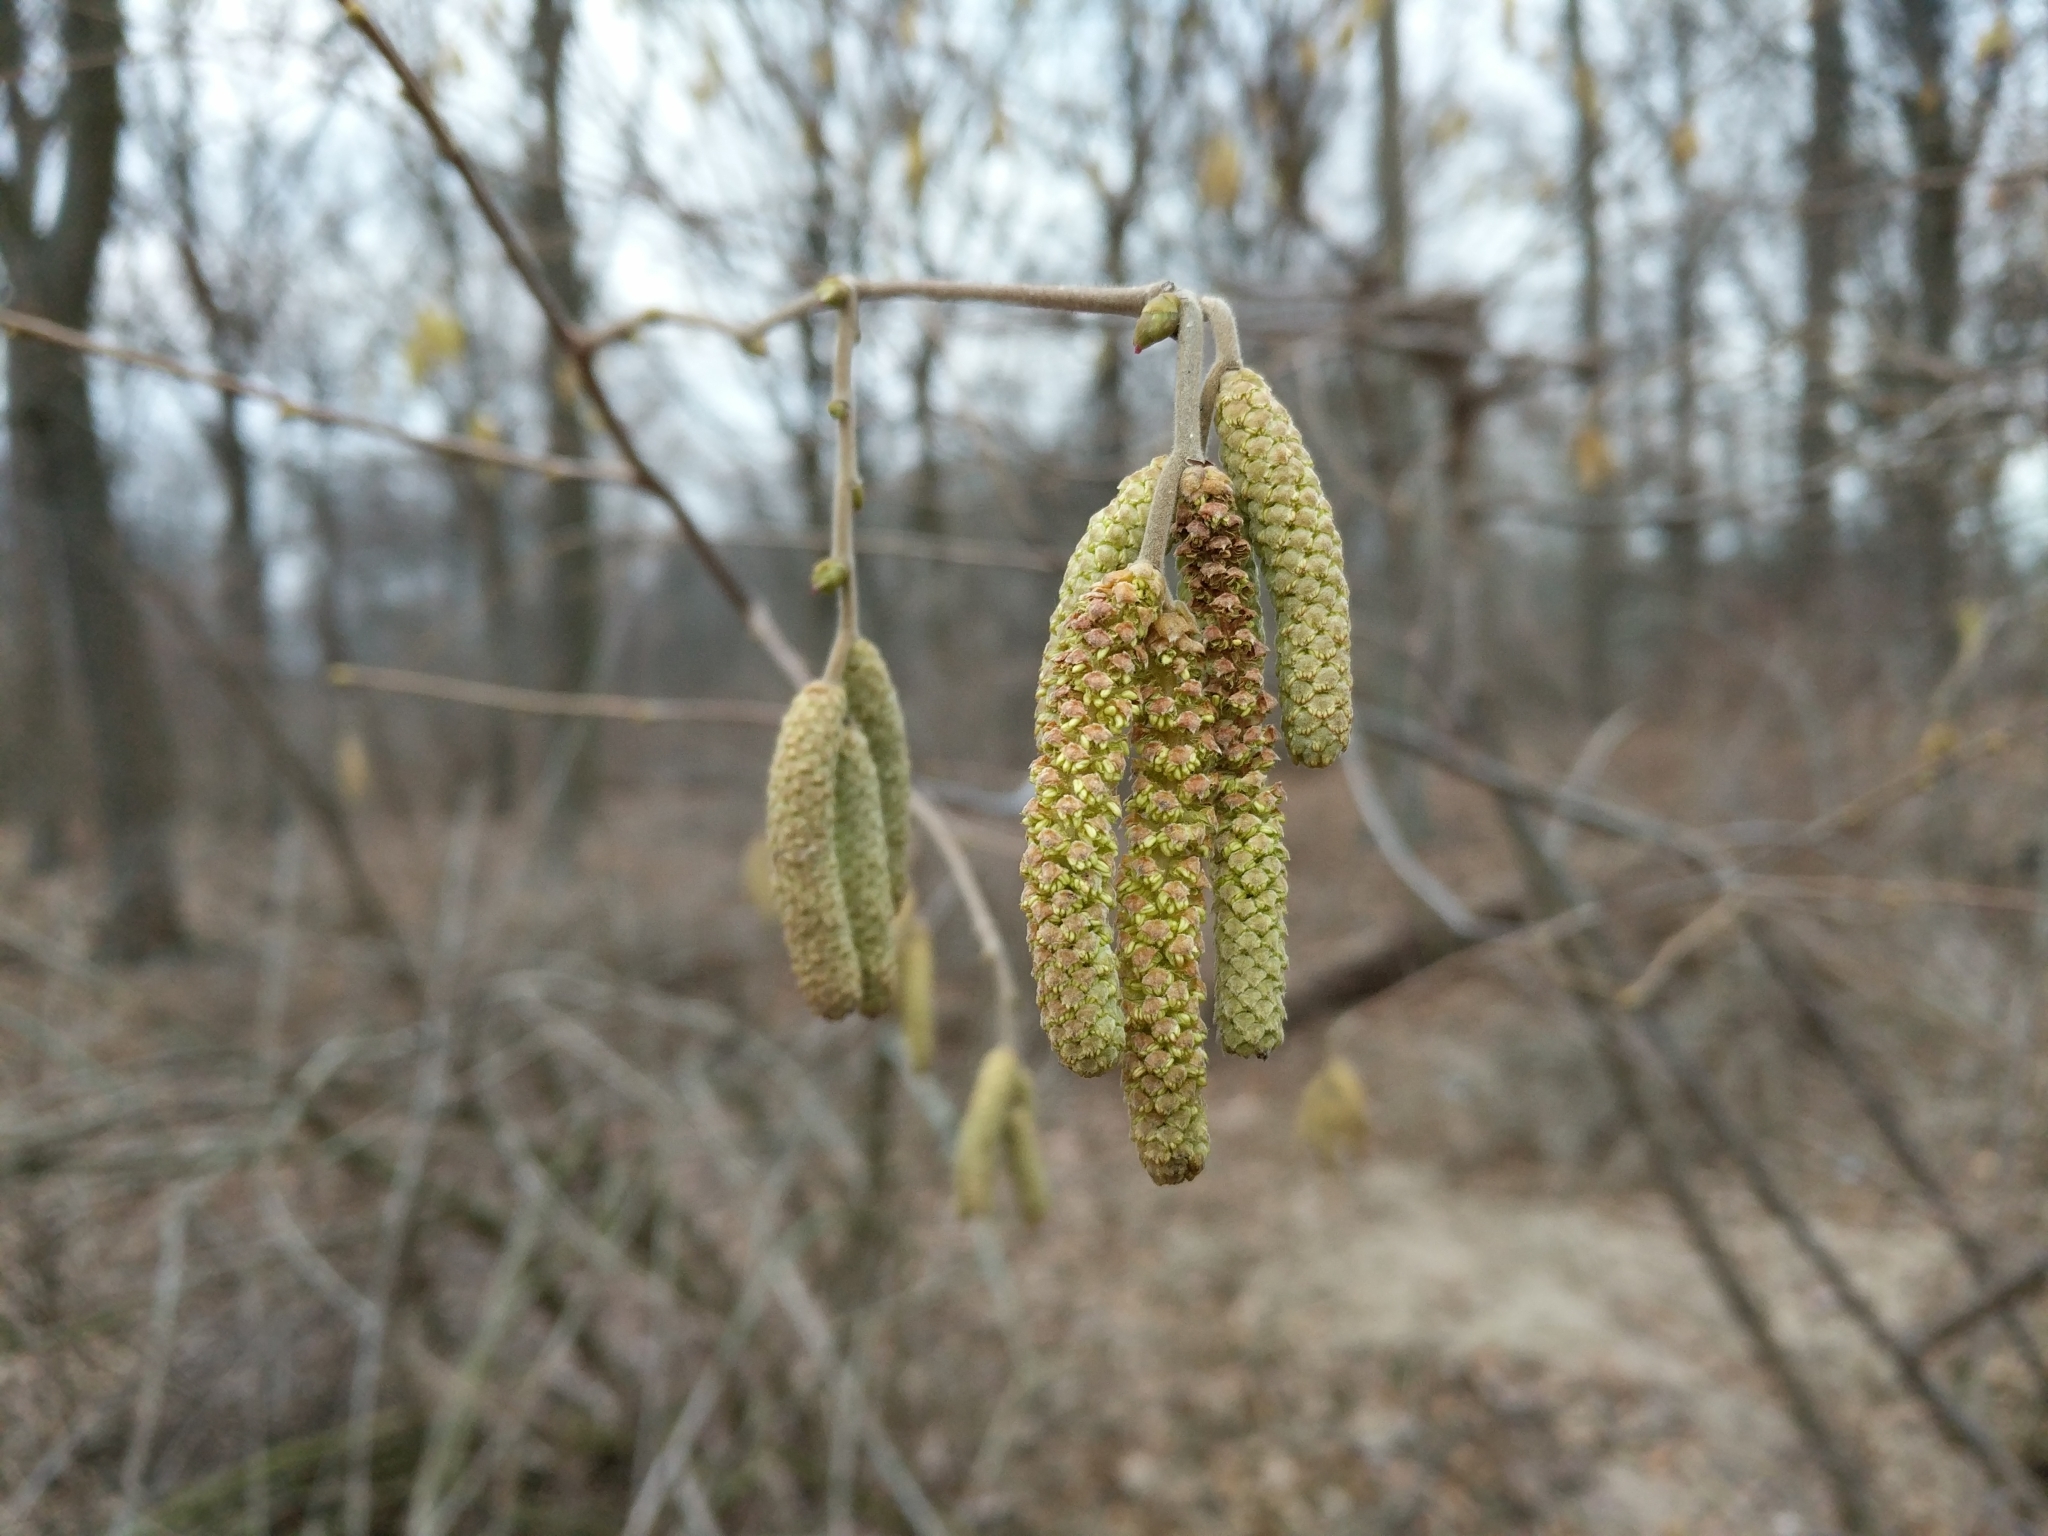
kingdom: Plantae
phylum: Tracheophyta
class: Magnoliopsida
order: Fagales
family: Betulaceae
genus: Corylus
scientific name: Corylus avellana
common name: European hazel
